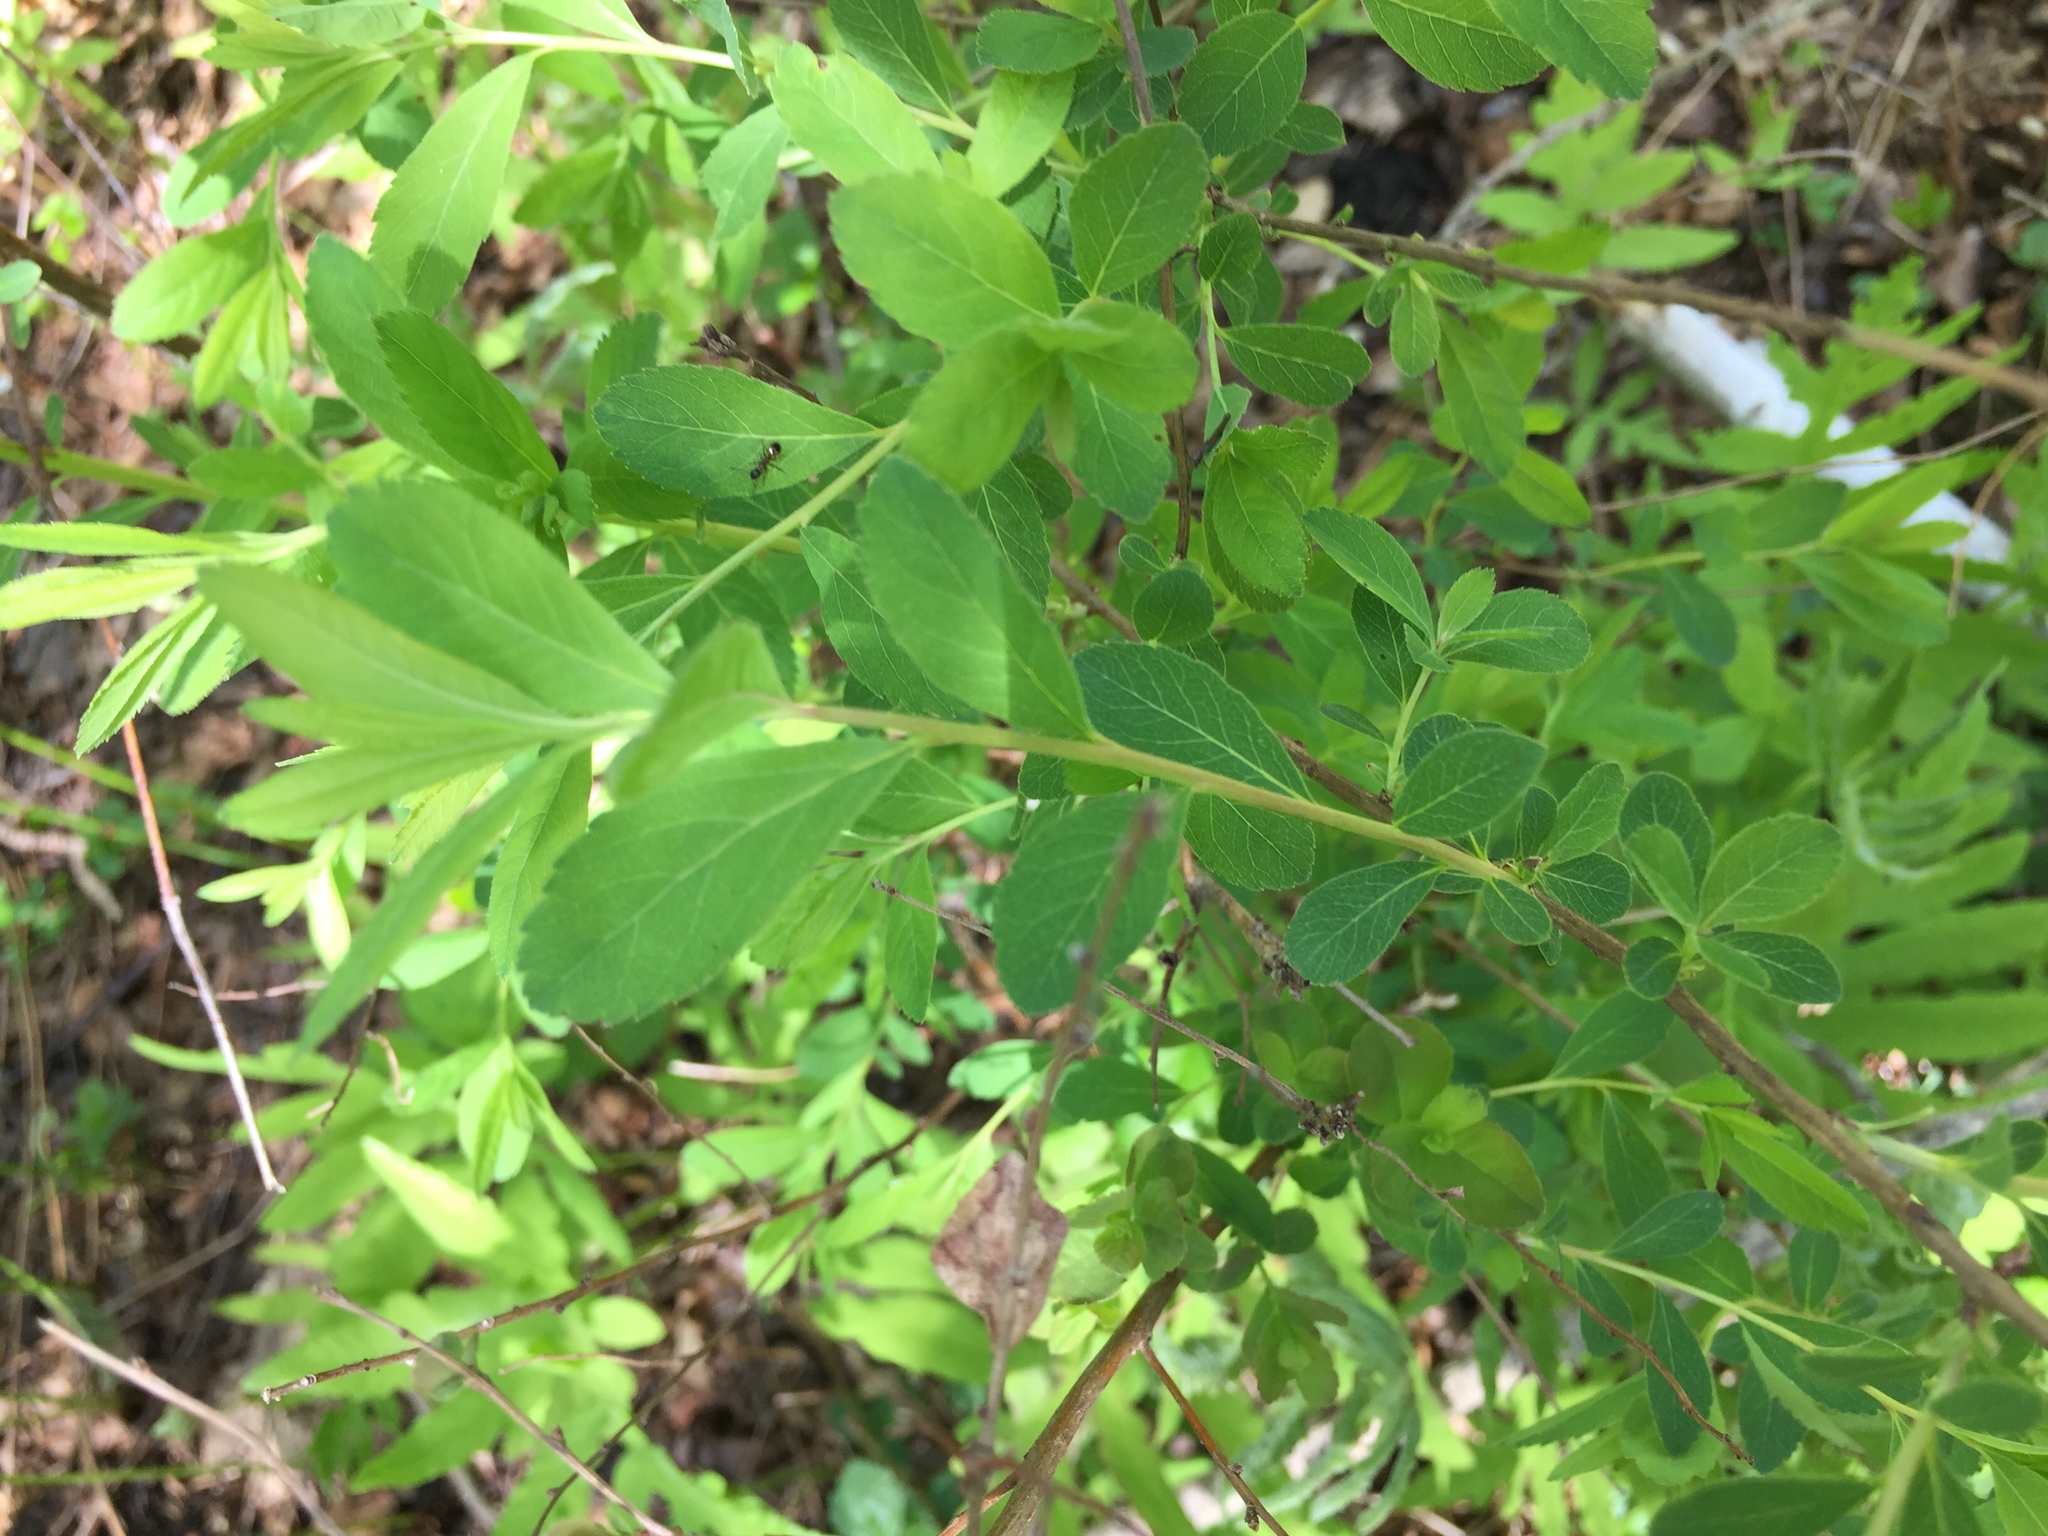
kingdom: Plantae
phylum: Tracheophyta
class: Magnoliopsida
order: Rosales
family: Rosaceae
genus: Spiraea
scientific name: Spiraea alba
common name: Pale bridewort
